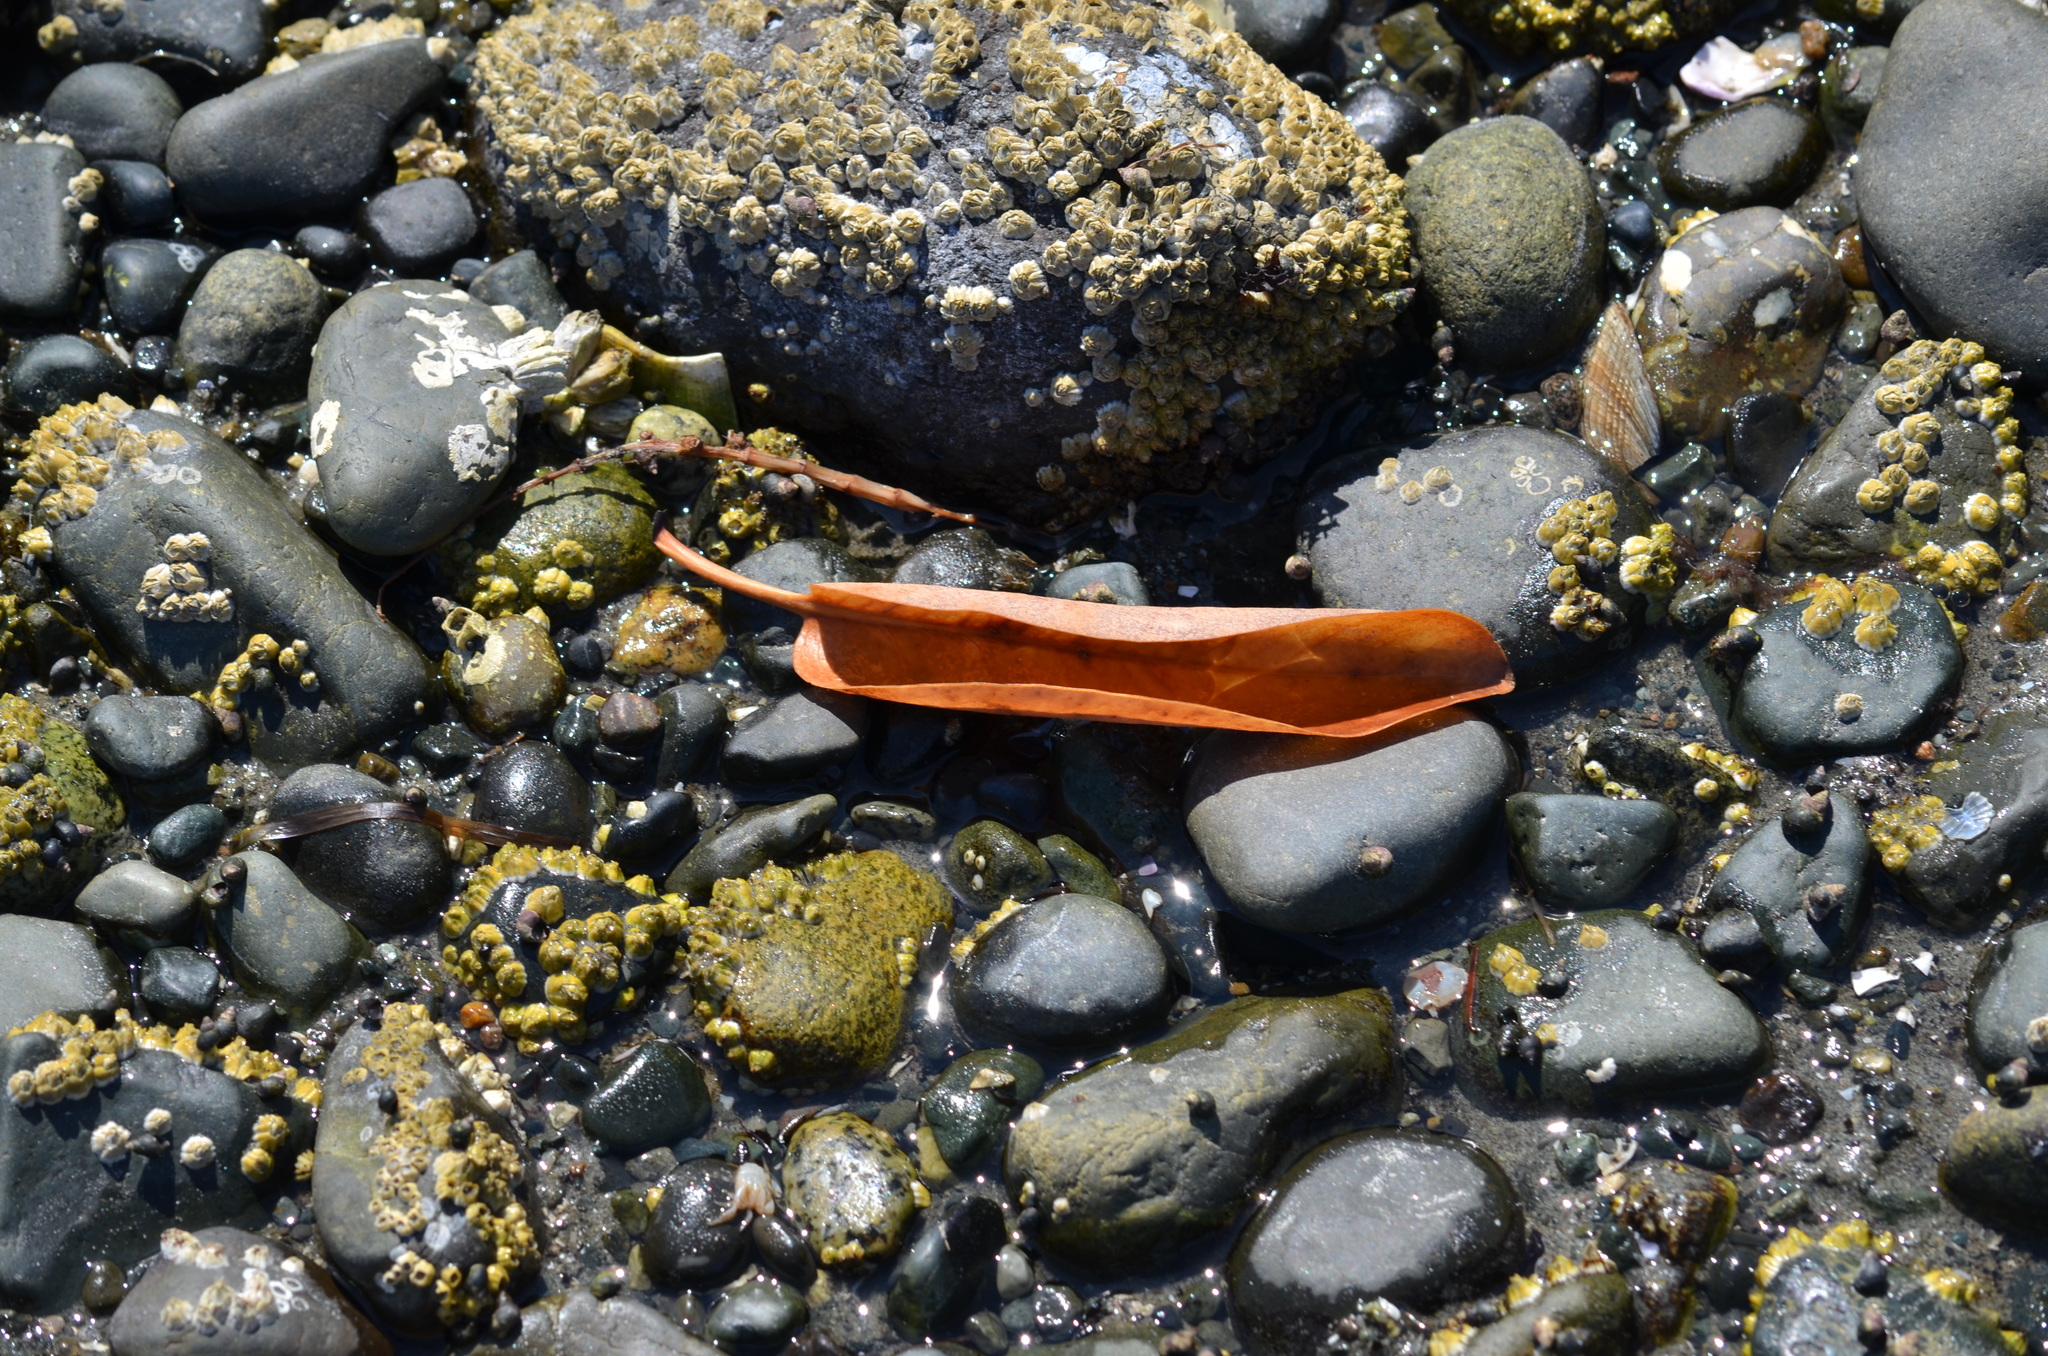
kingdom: Plantae
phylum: Tracheophyta
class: Magnoliopsida
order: Ericales
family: Ericaceae
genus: Arbutus
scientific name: Arbutus menziesii
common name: Pacific madrone
